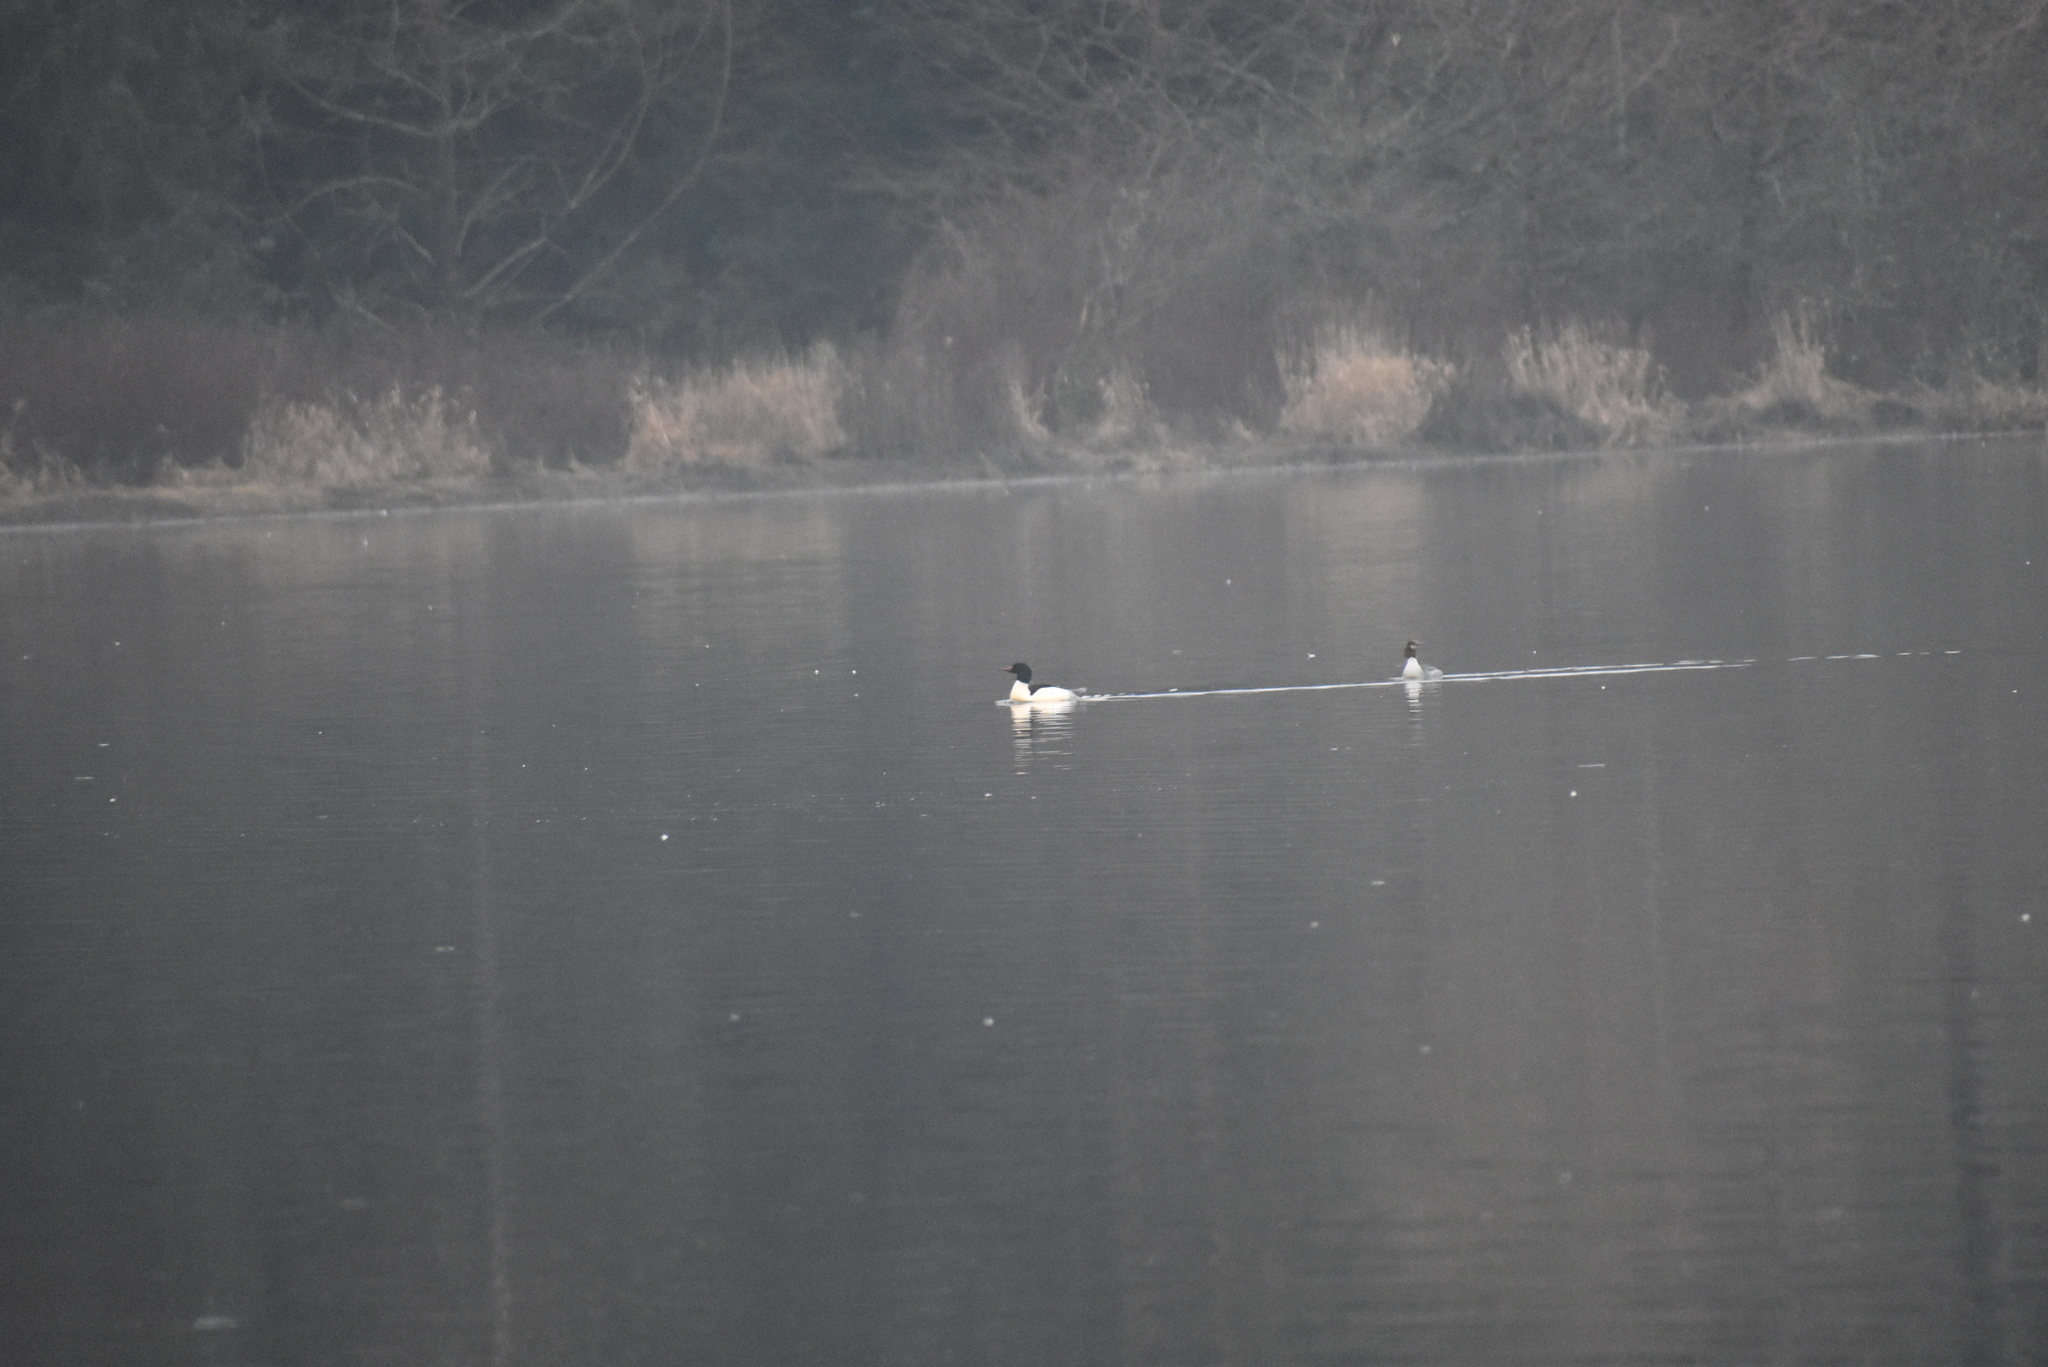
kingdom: Animalia
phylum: Chordata
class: Aves
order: Anseriformes
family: Anatidae
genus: Mergus
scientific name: Mergus merganser
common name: Common merganser
